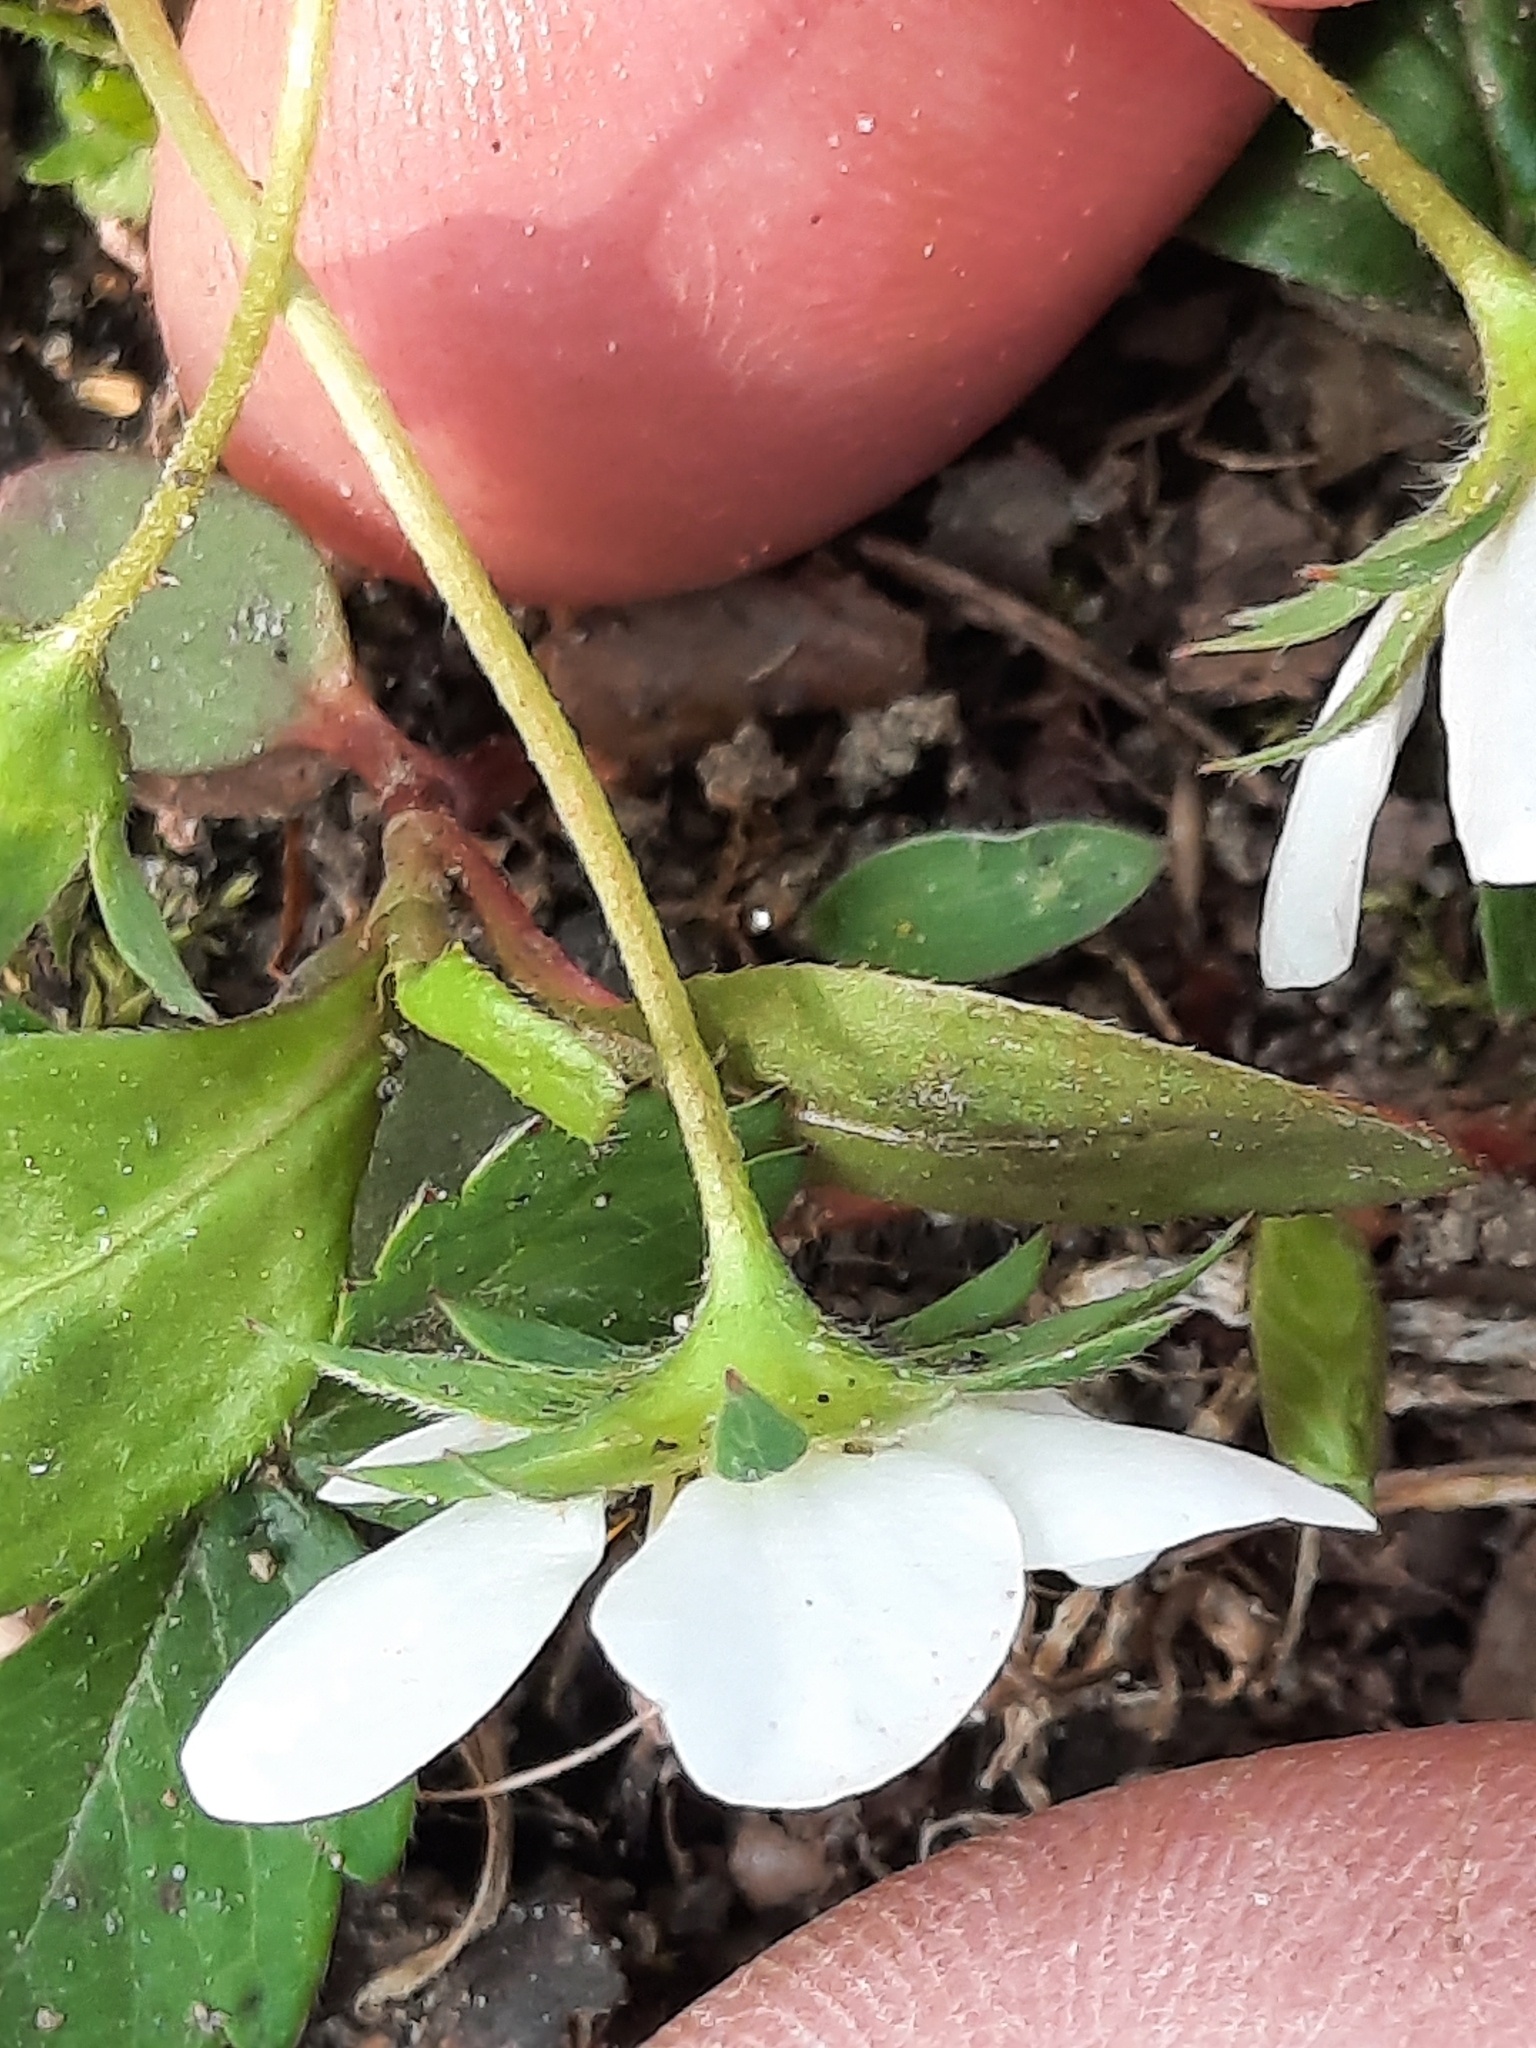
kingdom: Plantae
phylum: Tracheophyta
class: Magnoliopsida
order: Rosales
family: Rosaceae
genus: Fragaria
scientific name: Fragaria virginiana
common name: Thickleaved wild strawberry
